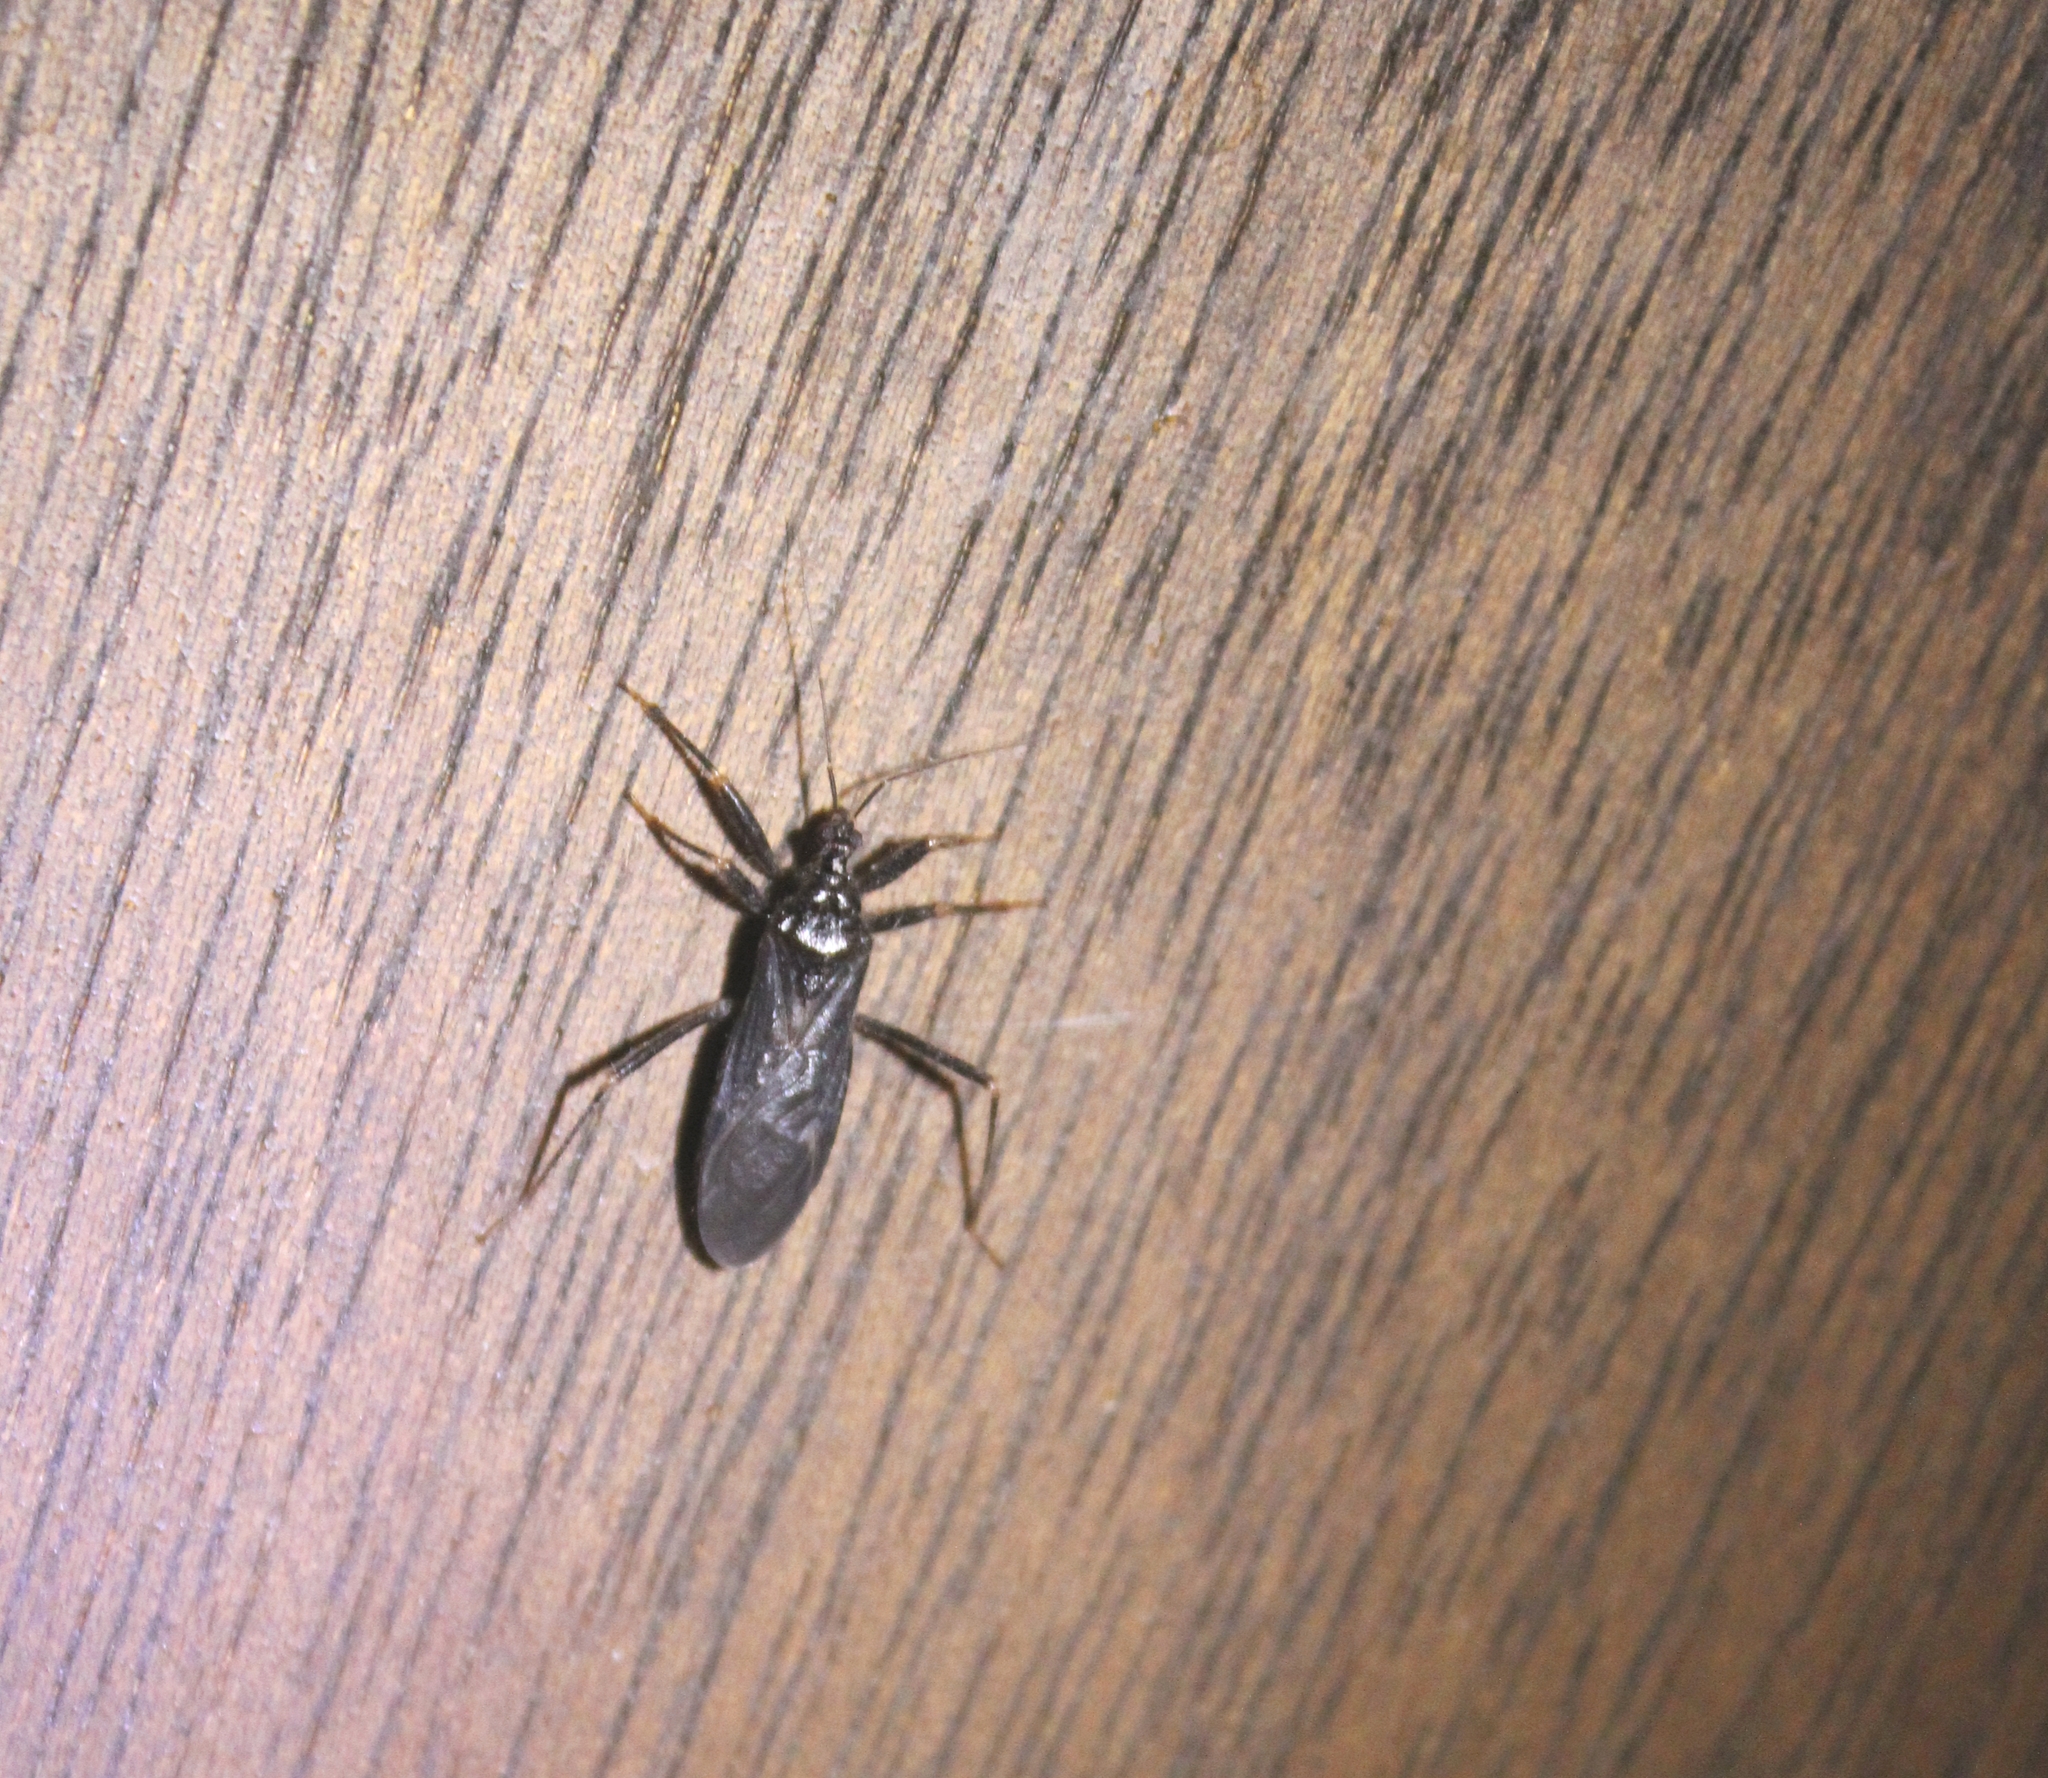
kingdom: Animalia
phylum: Arthropoda
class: Insecta
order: Hemiptera
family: Reduviidae
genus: Reduvius
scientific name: Reduvius personatus
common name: Masked hunter
